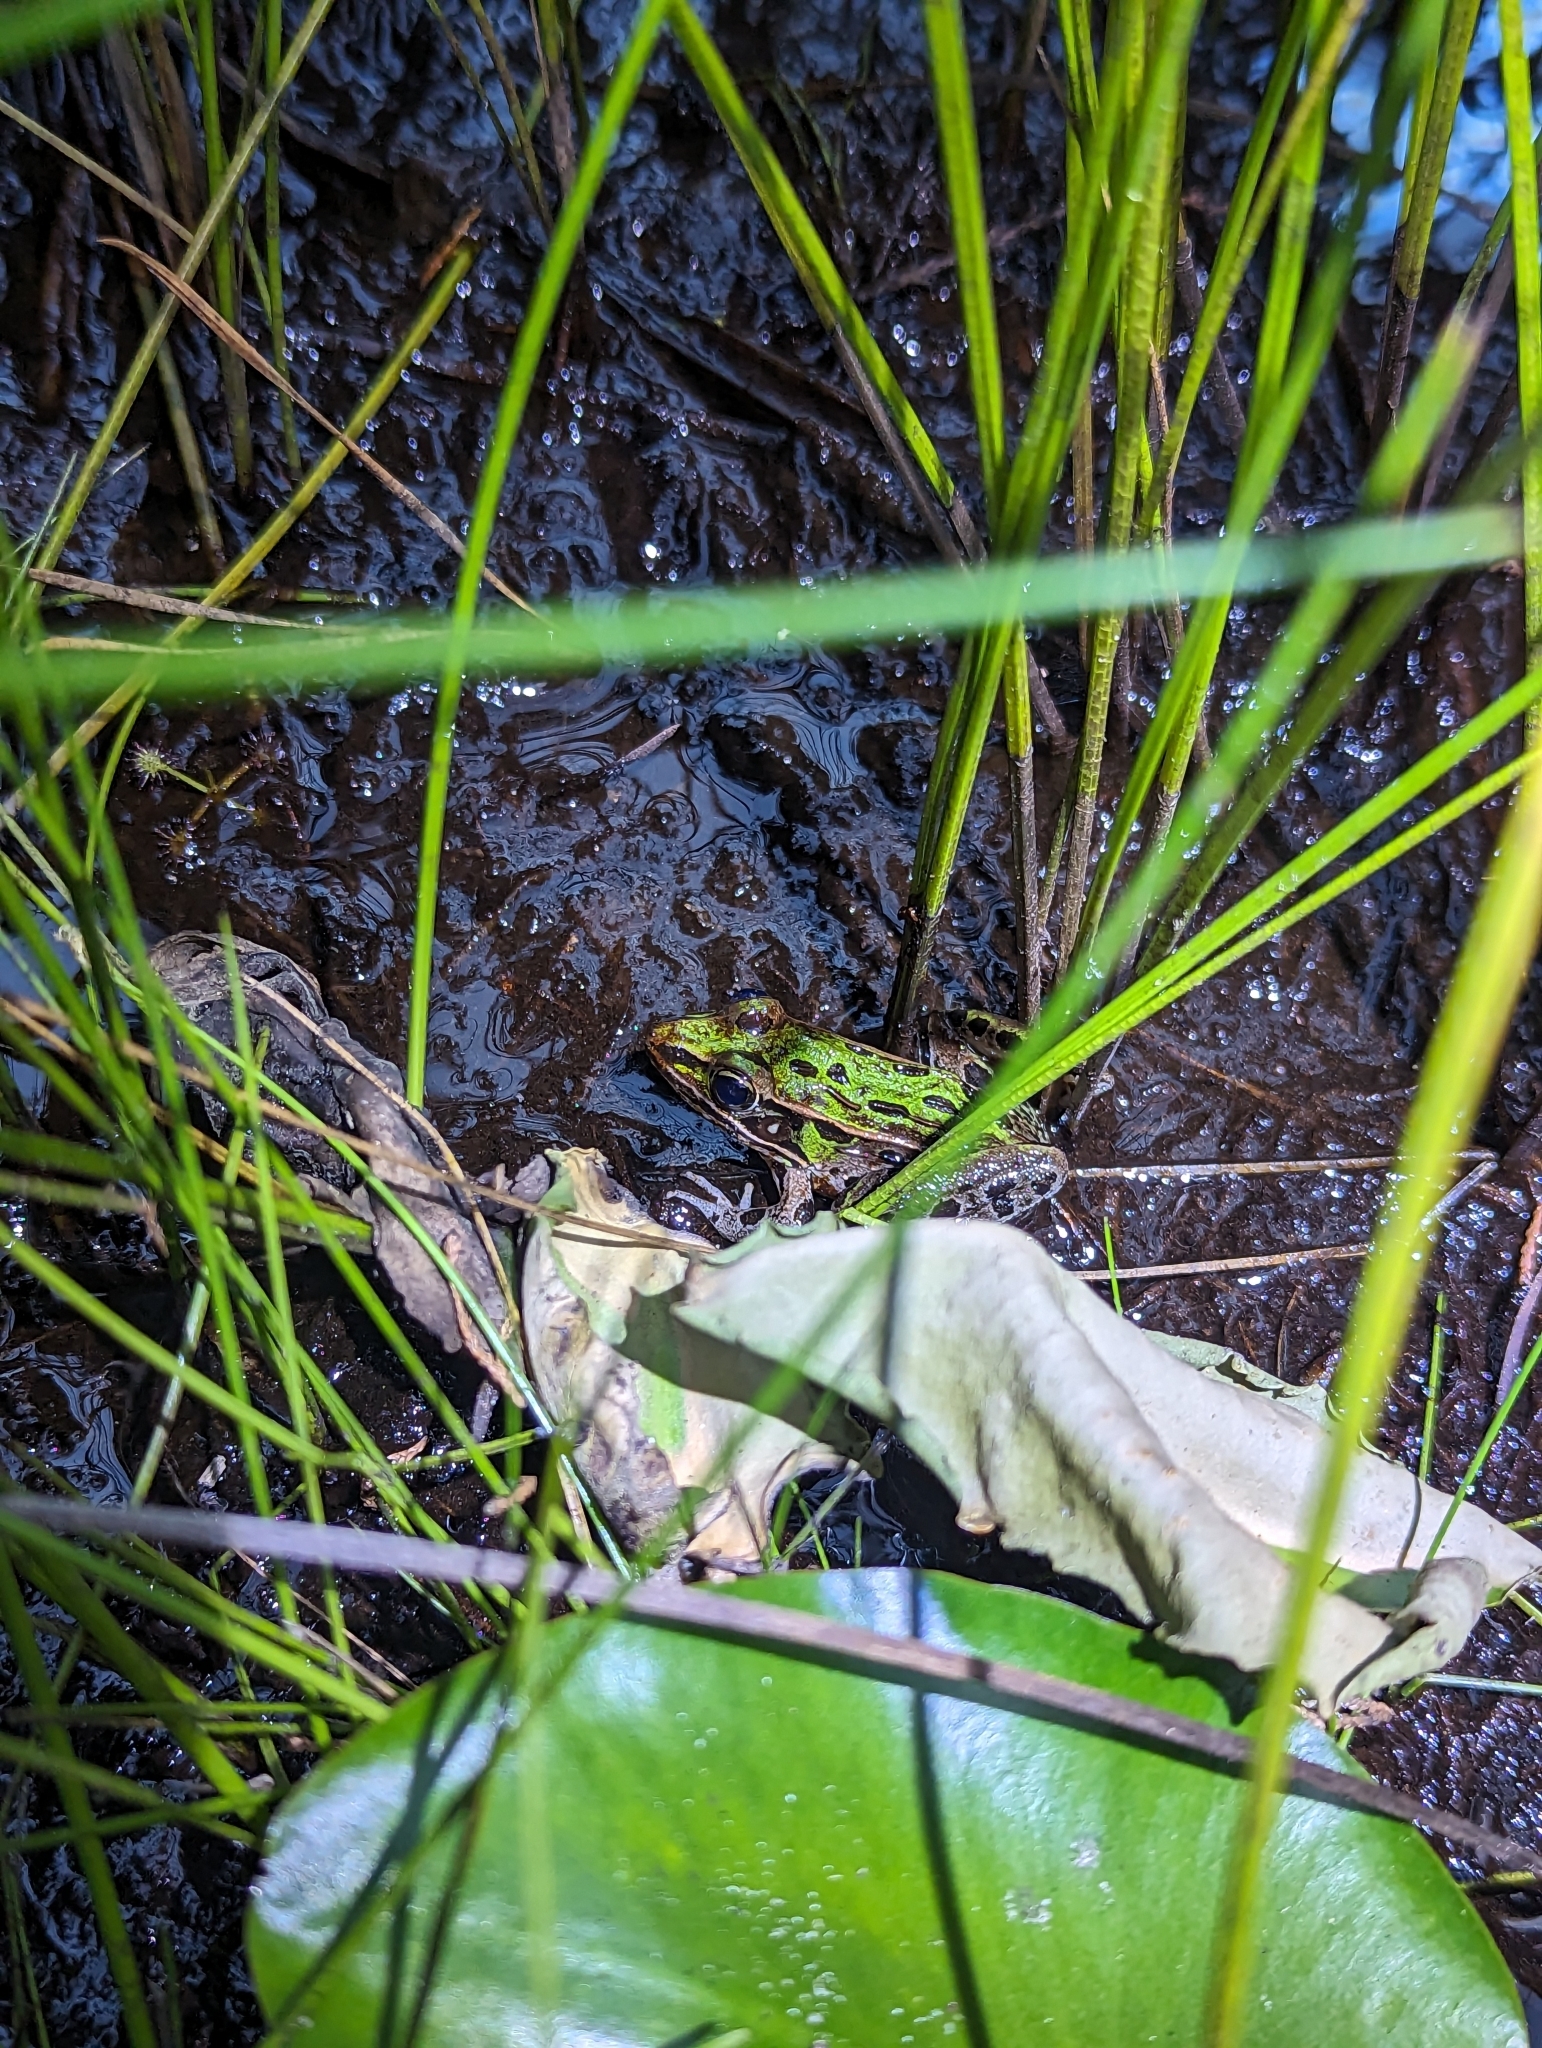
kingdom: Animalia
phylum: Chordata
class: Amphibia
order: Anura
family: Ranidae
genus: Lithobates
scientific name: Lithobates sphenocephalus
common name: Southern leopard frog
